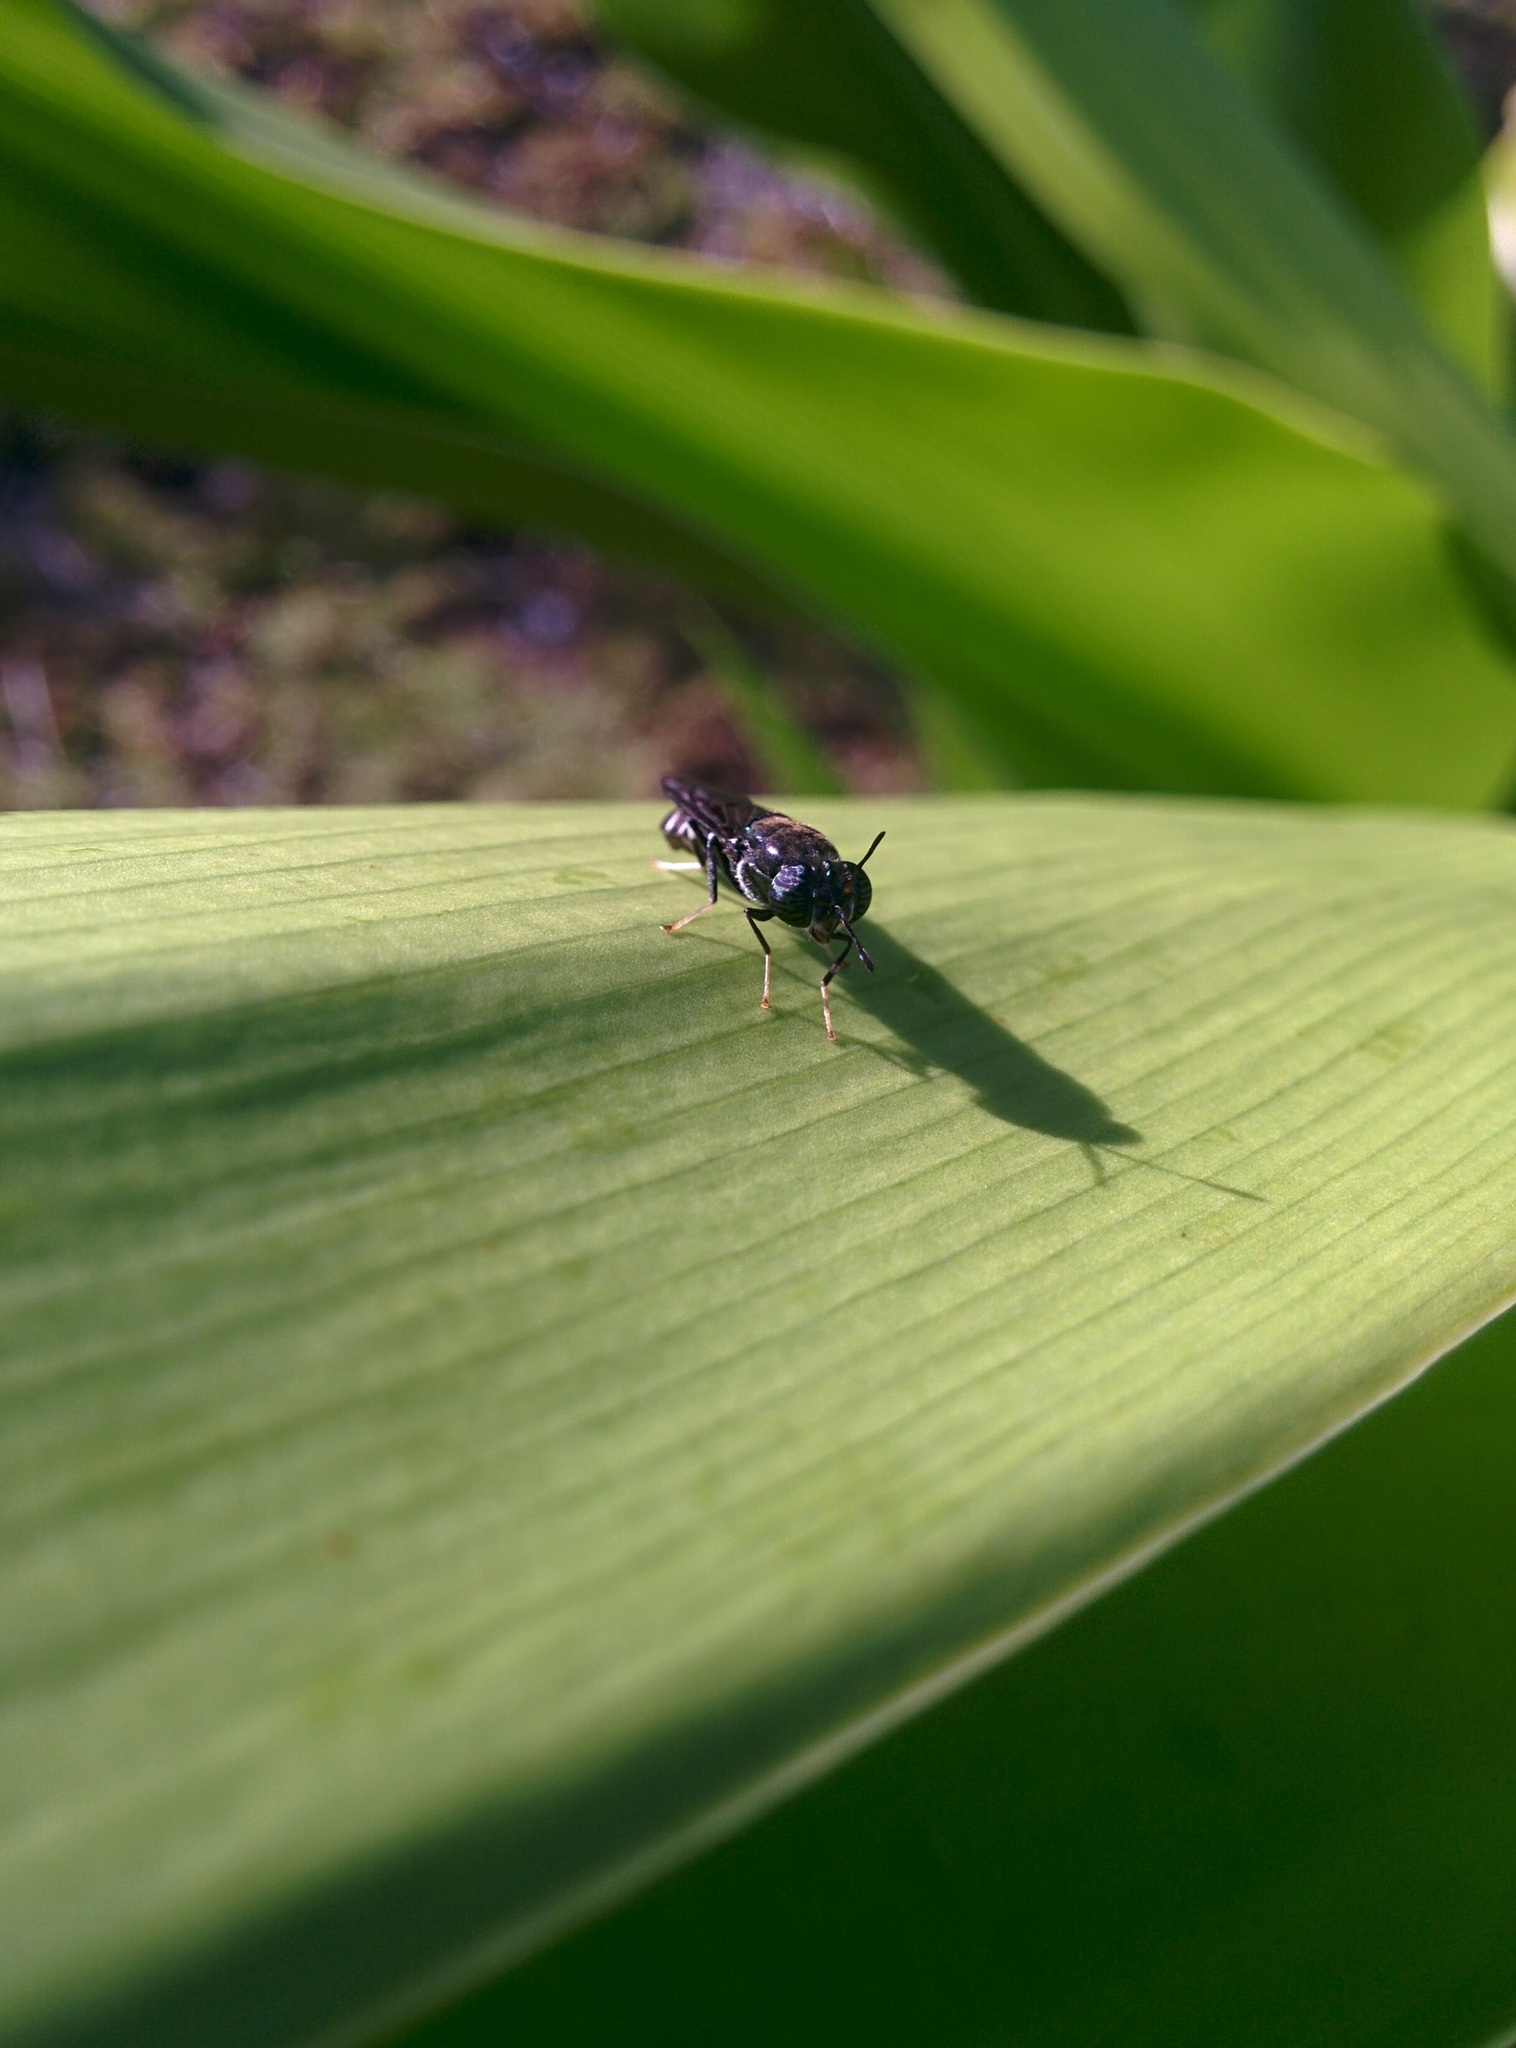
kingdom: Animalia
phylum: Arthropoda
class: Insecta
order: Diptera
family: Stratiomyidae
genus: Hermetia
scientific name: Hermetia illucens
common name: Black soldier fly
